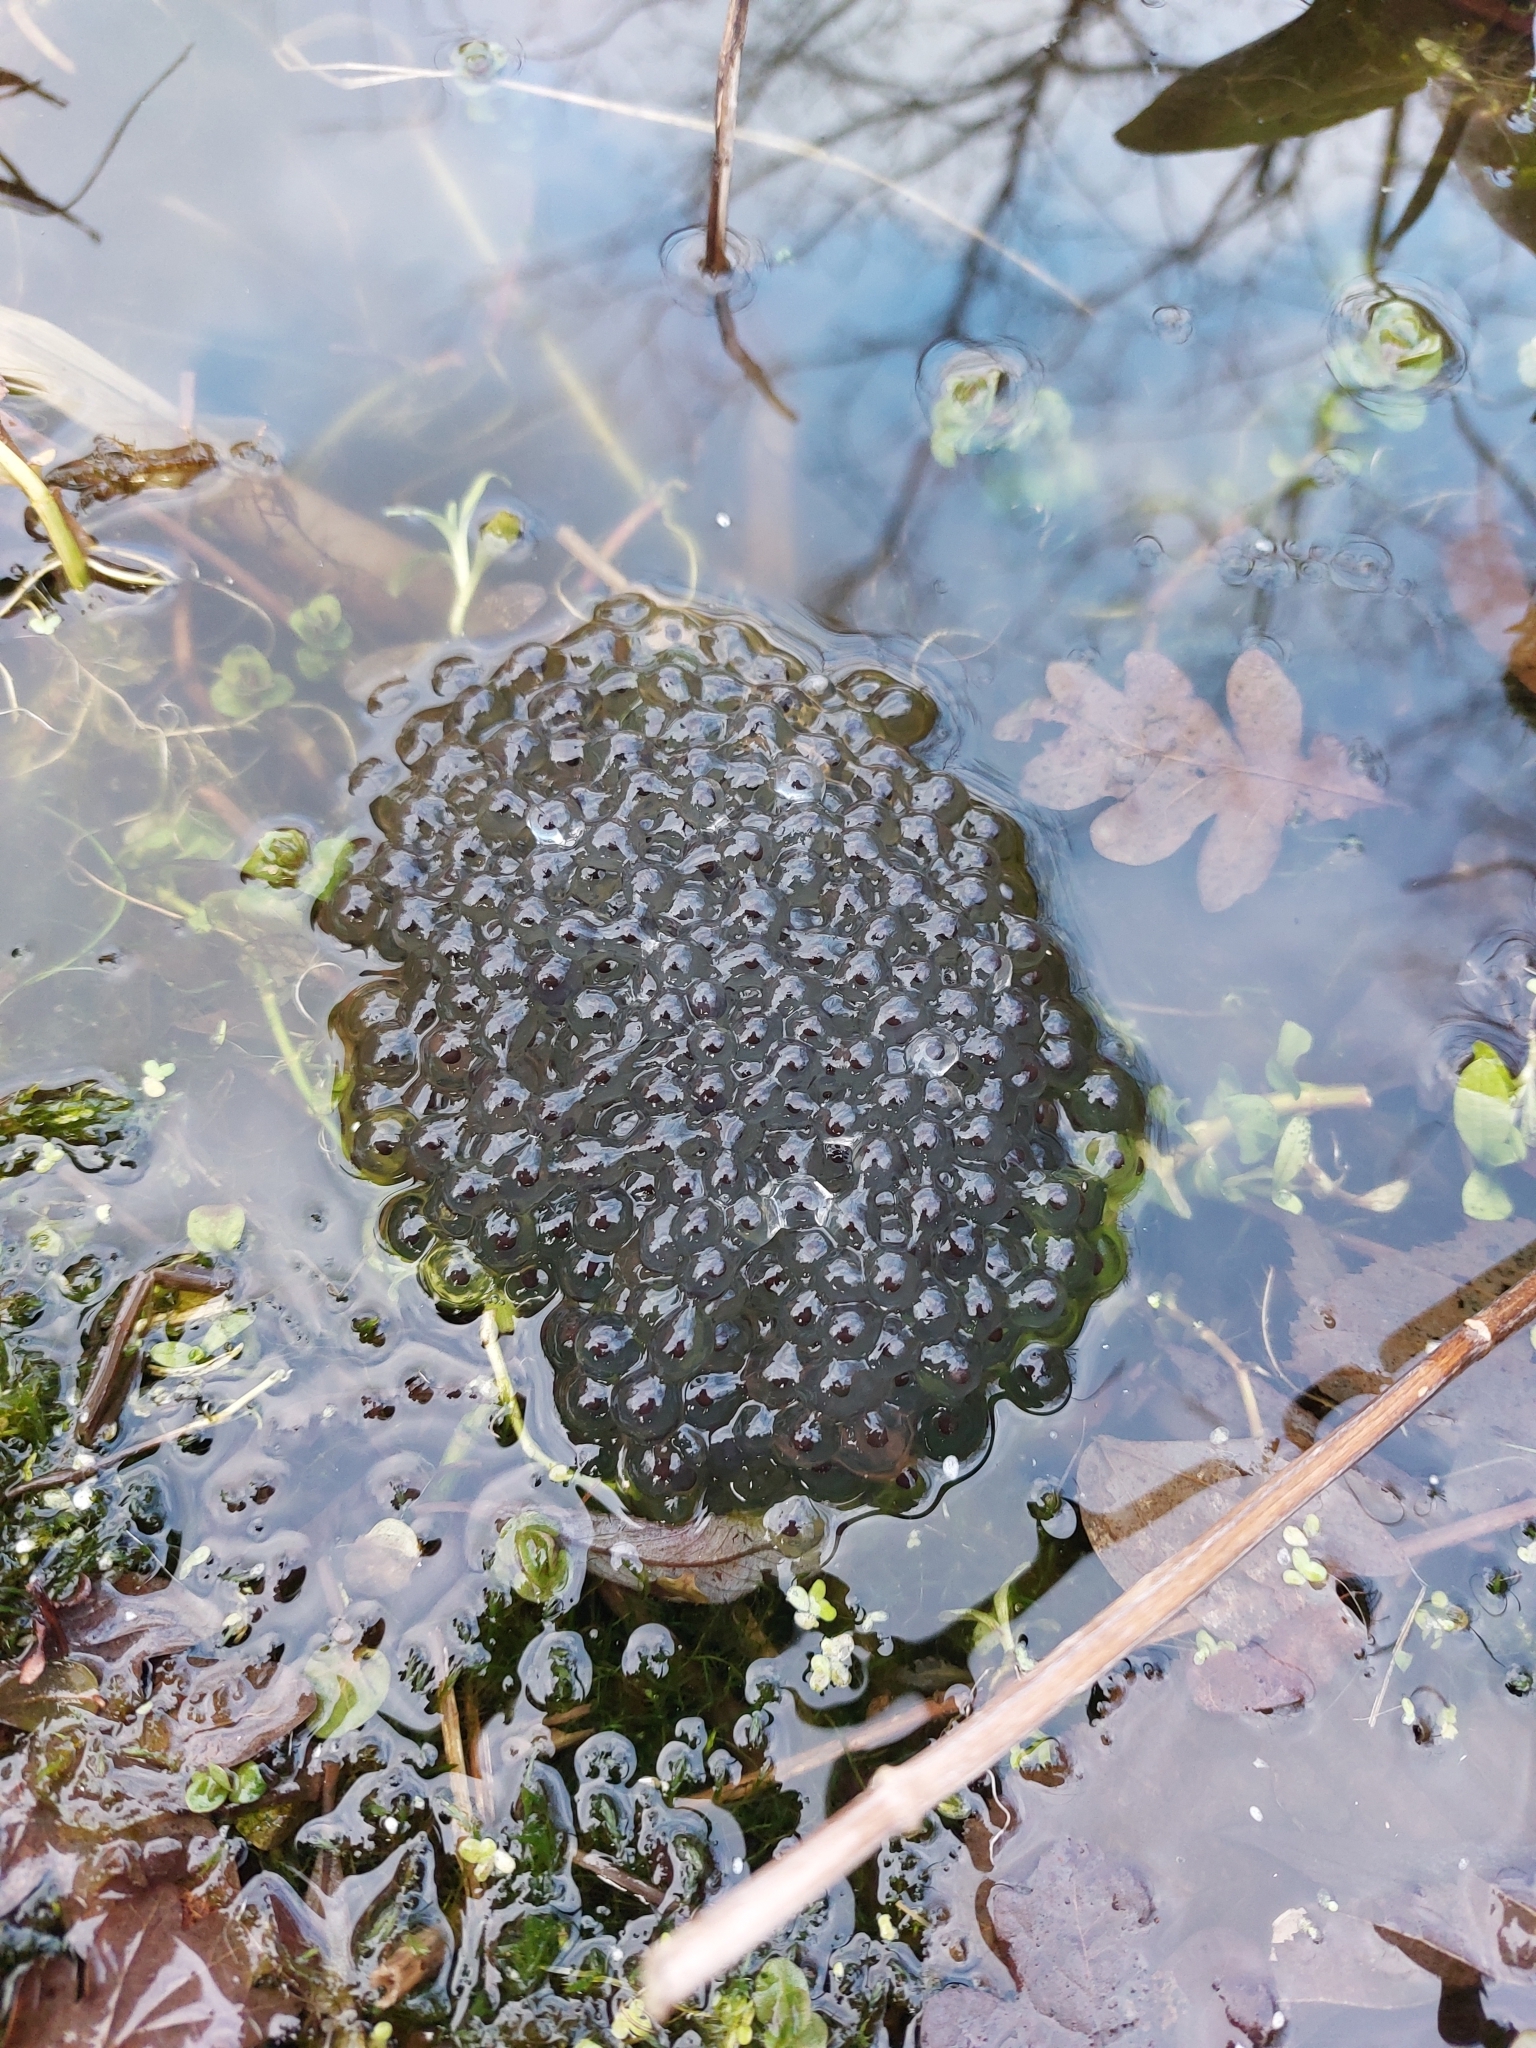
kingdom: Animalia
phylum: Chordata
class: Amphibia
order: Anura
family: Ranidae
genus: Rana
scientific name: Rana temporaria
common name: Common frog
